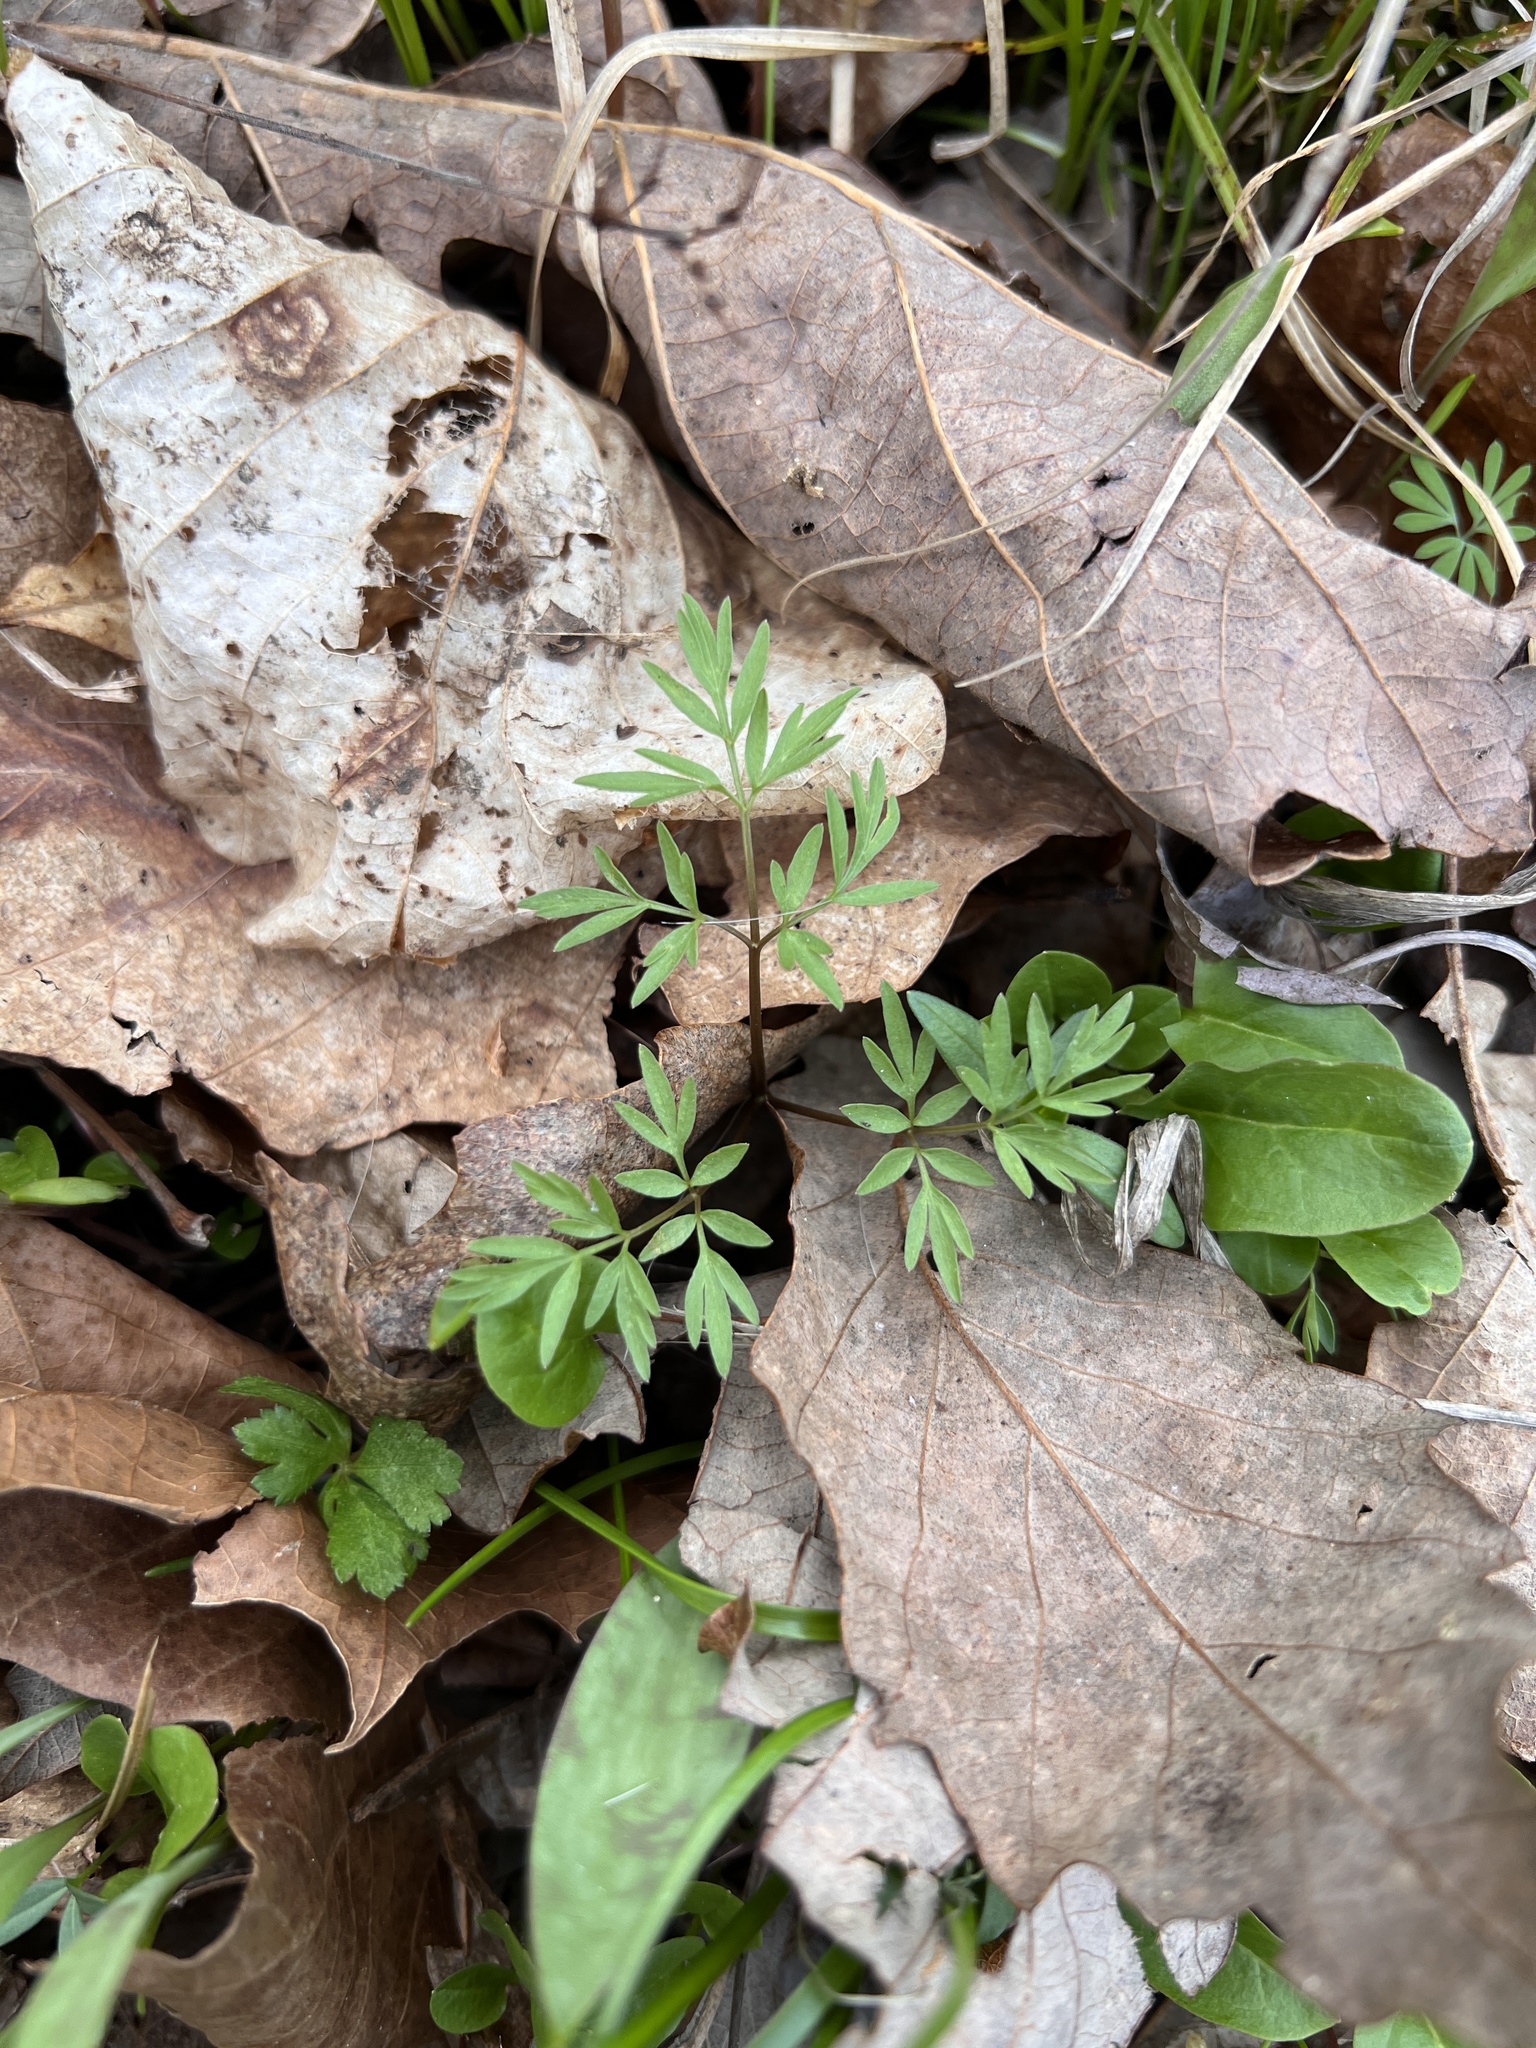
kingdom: Plantae
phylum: Tracheophyta
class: Magnoliopsida
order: Apiales
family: Apiaceae
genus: Erigenia
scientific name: Erigenia bulbosa
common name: Pepper-and-salt
